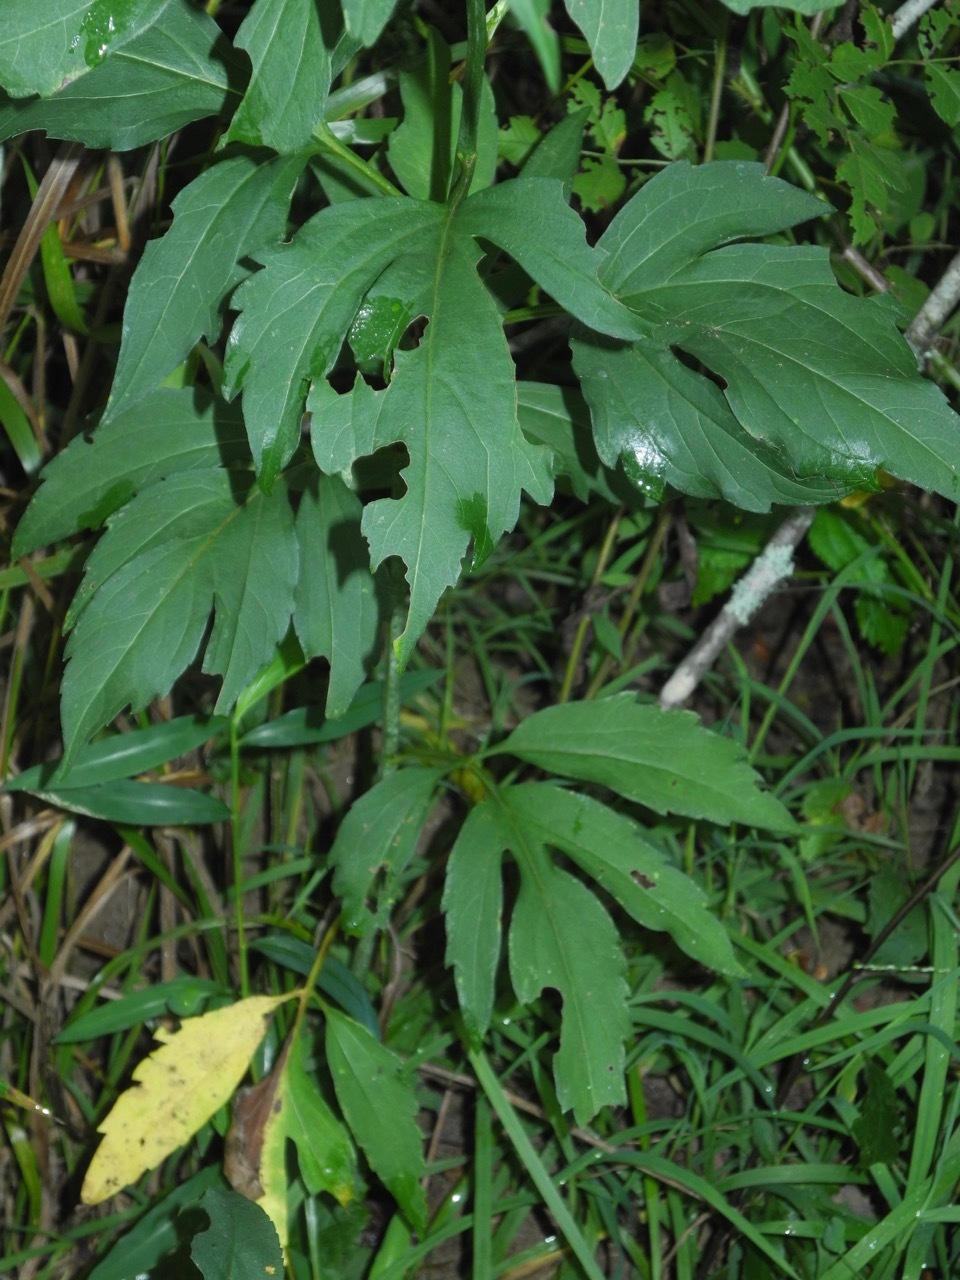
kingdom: Plantae
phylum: Tracheophyta
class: Magnoliopsida
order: Asterales
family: Asteraceae
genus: Rudbeckia
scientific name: Rudbeckia laciniata
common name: Coneflower
